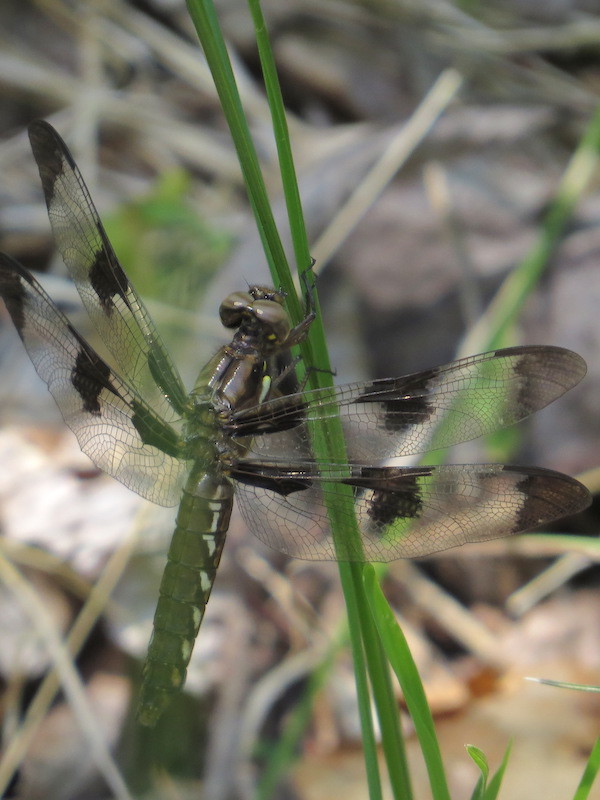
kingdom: Animalia
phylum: Arthropoda
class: Insecta
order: Odonata
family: Libellulidae
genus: Plathemis
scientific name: Plathemis lydia
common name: Common whitetail
